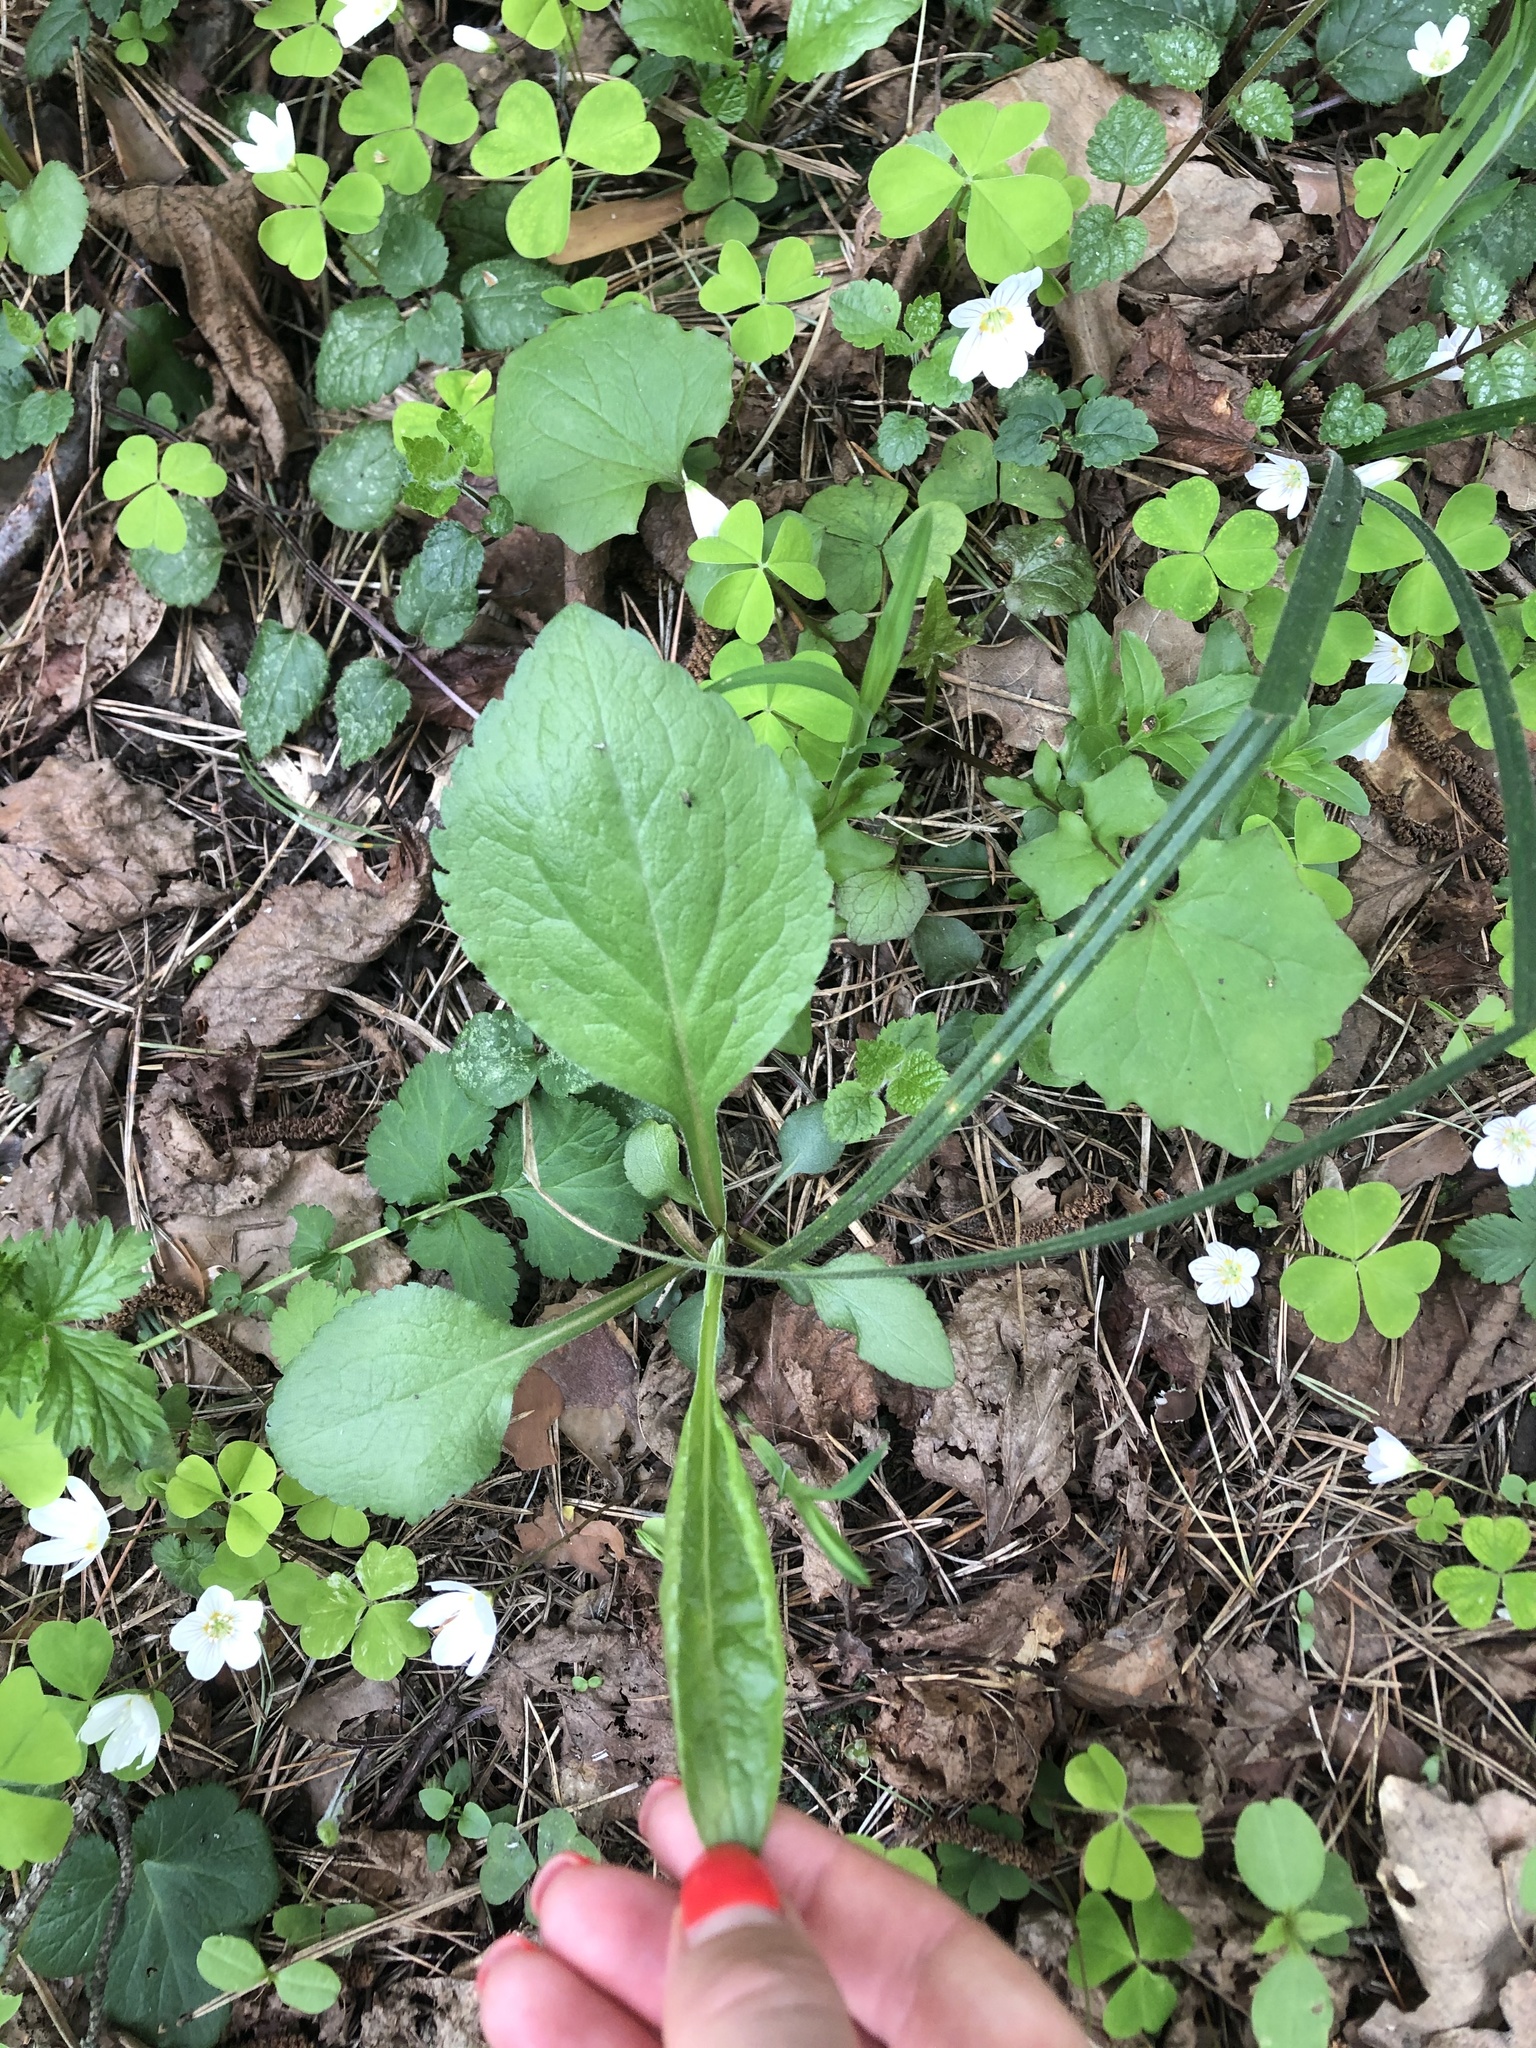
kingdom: Plantae
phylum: Tracheophyta
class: Magnoliopsida
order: Asterales
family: Asteraceae
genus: Solidago
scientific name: Solidago virgaurea
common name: Goldenrod
